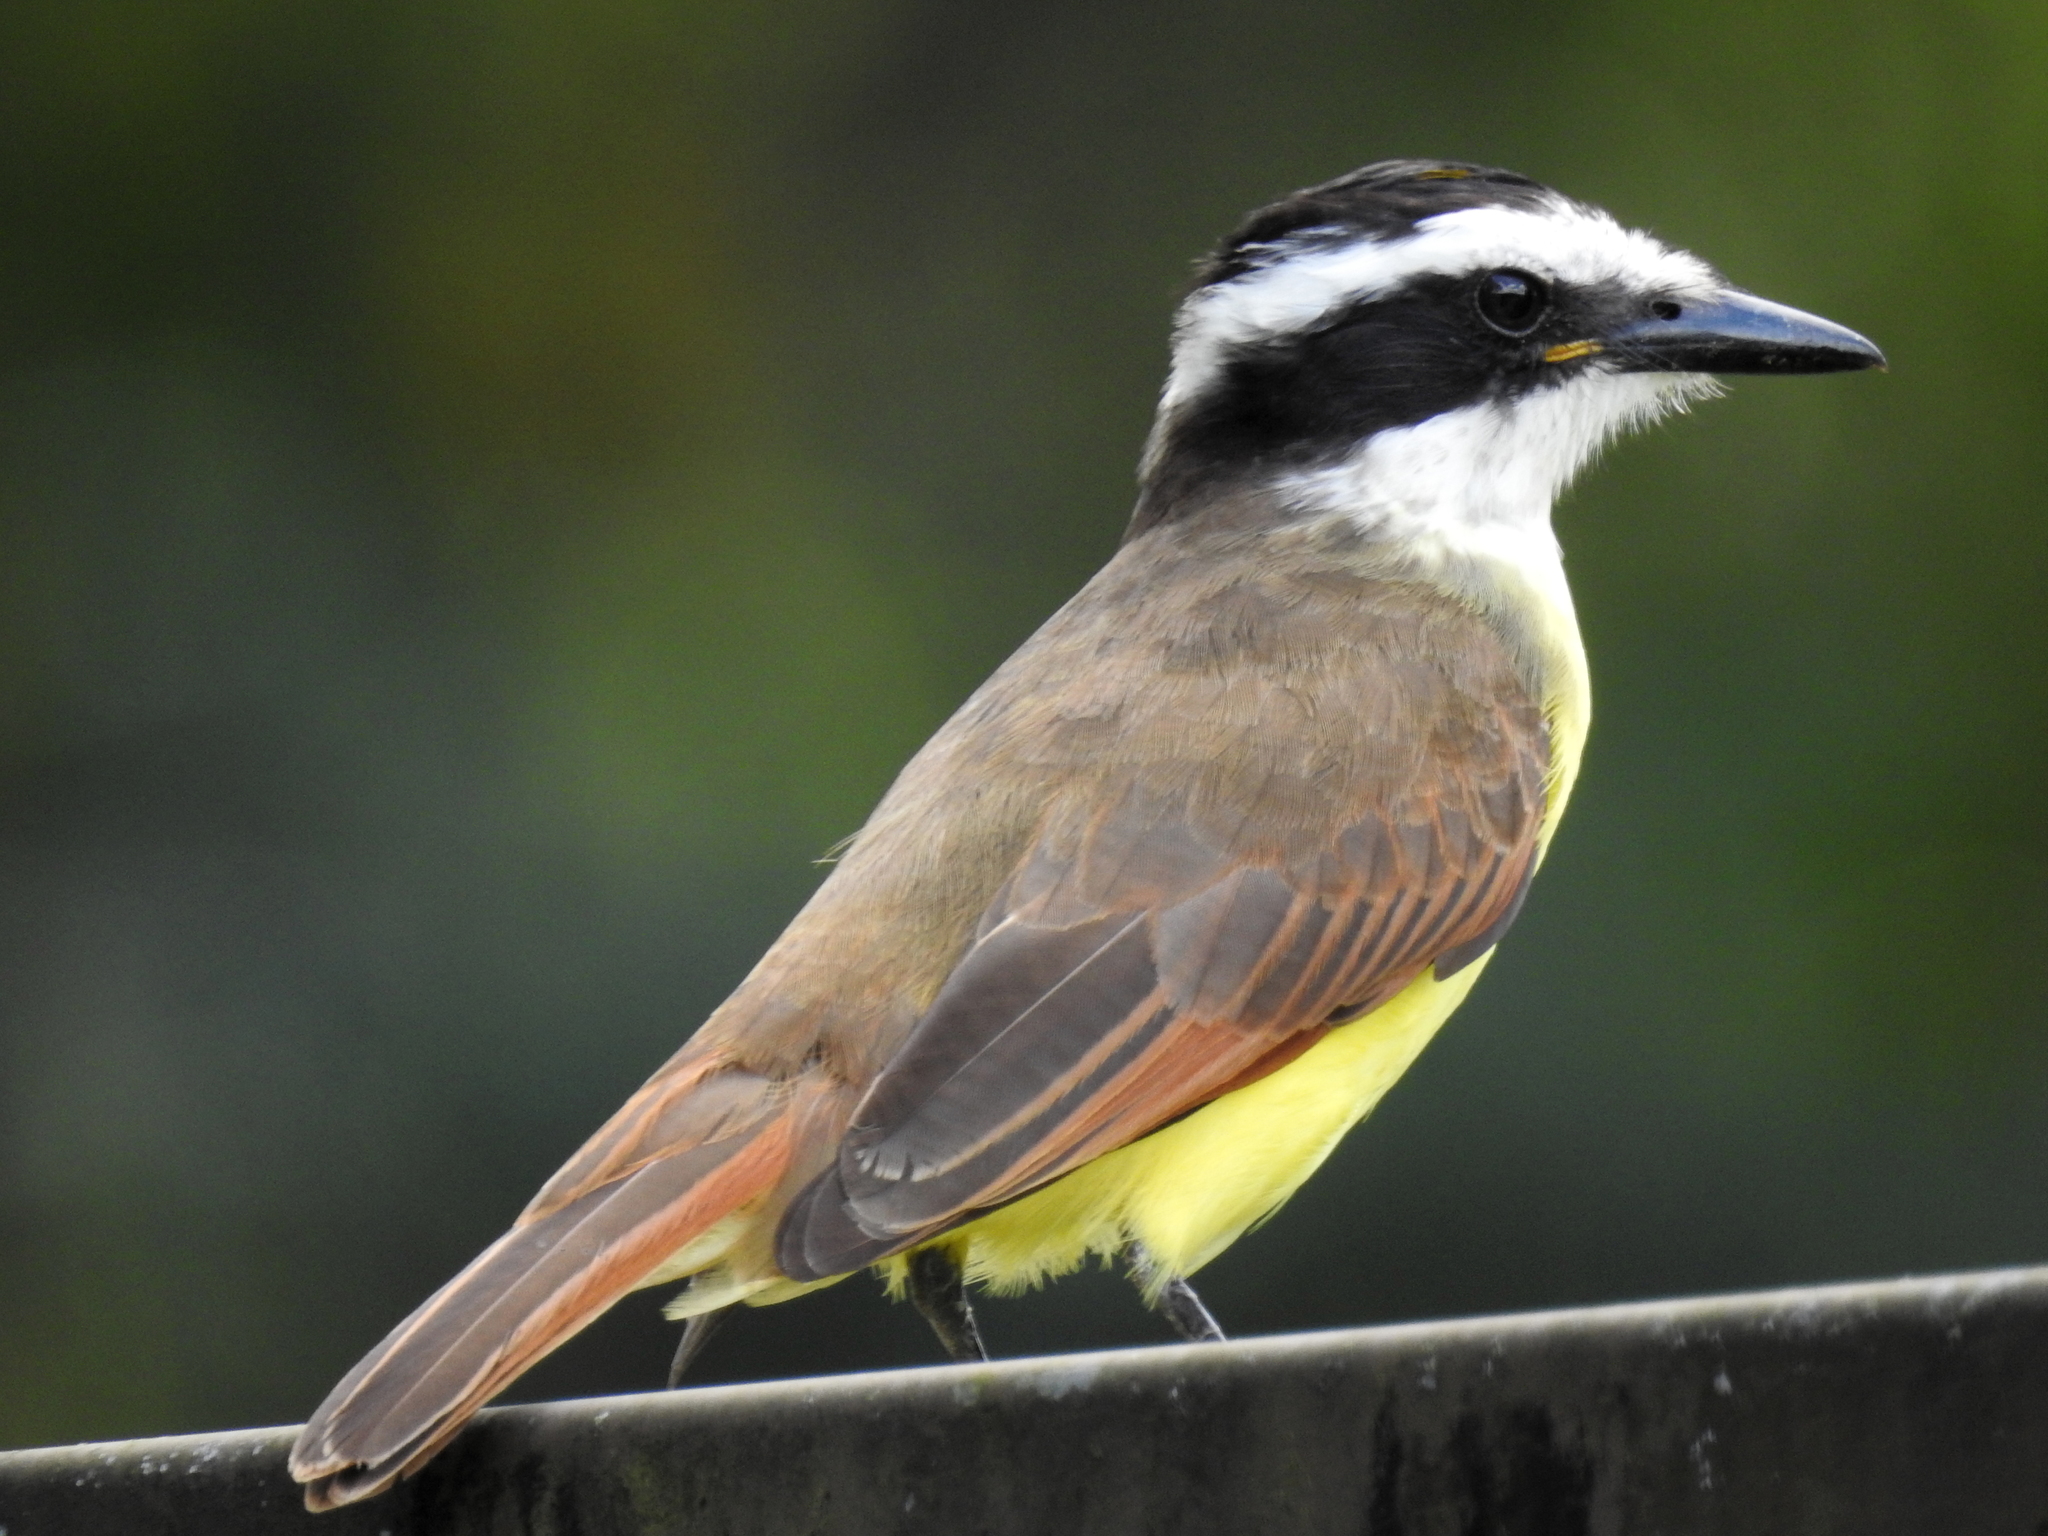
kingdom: Animalia
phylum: Chordata
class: Aves
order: Passeriformes
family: Tyrannidae
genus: Pitangus
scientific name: Pitangus sulphuratus
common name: Great kiskadee
